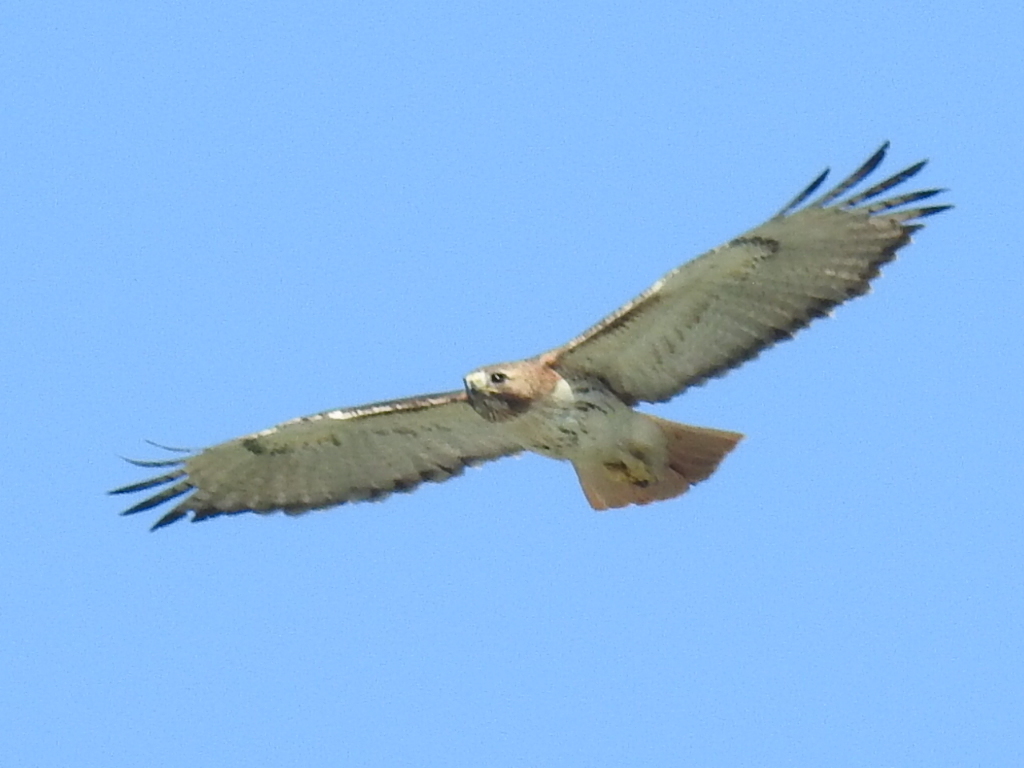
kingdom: Animalia
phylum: Chordata
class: Aves
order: Accipitriformes
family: Accipitridae
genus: Buteo
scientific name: Buteo jamaicensis
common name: Red-tailed hawk
